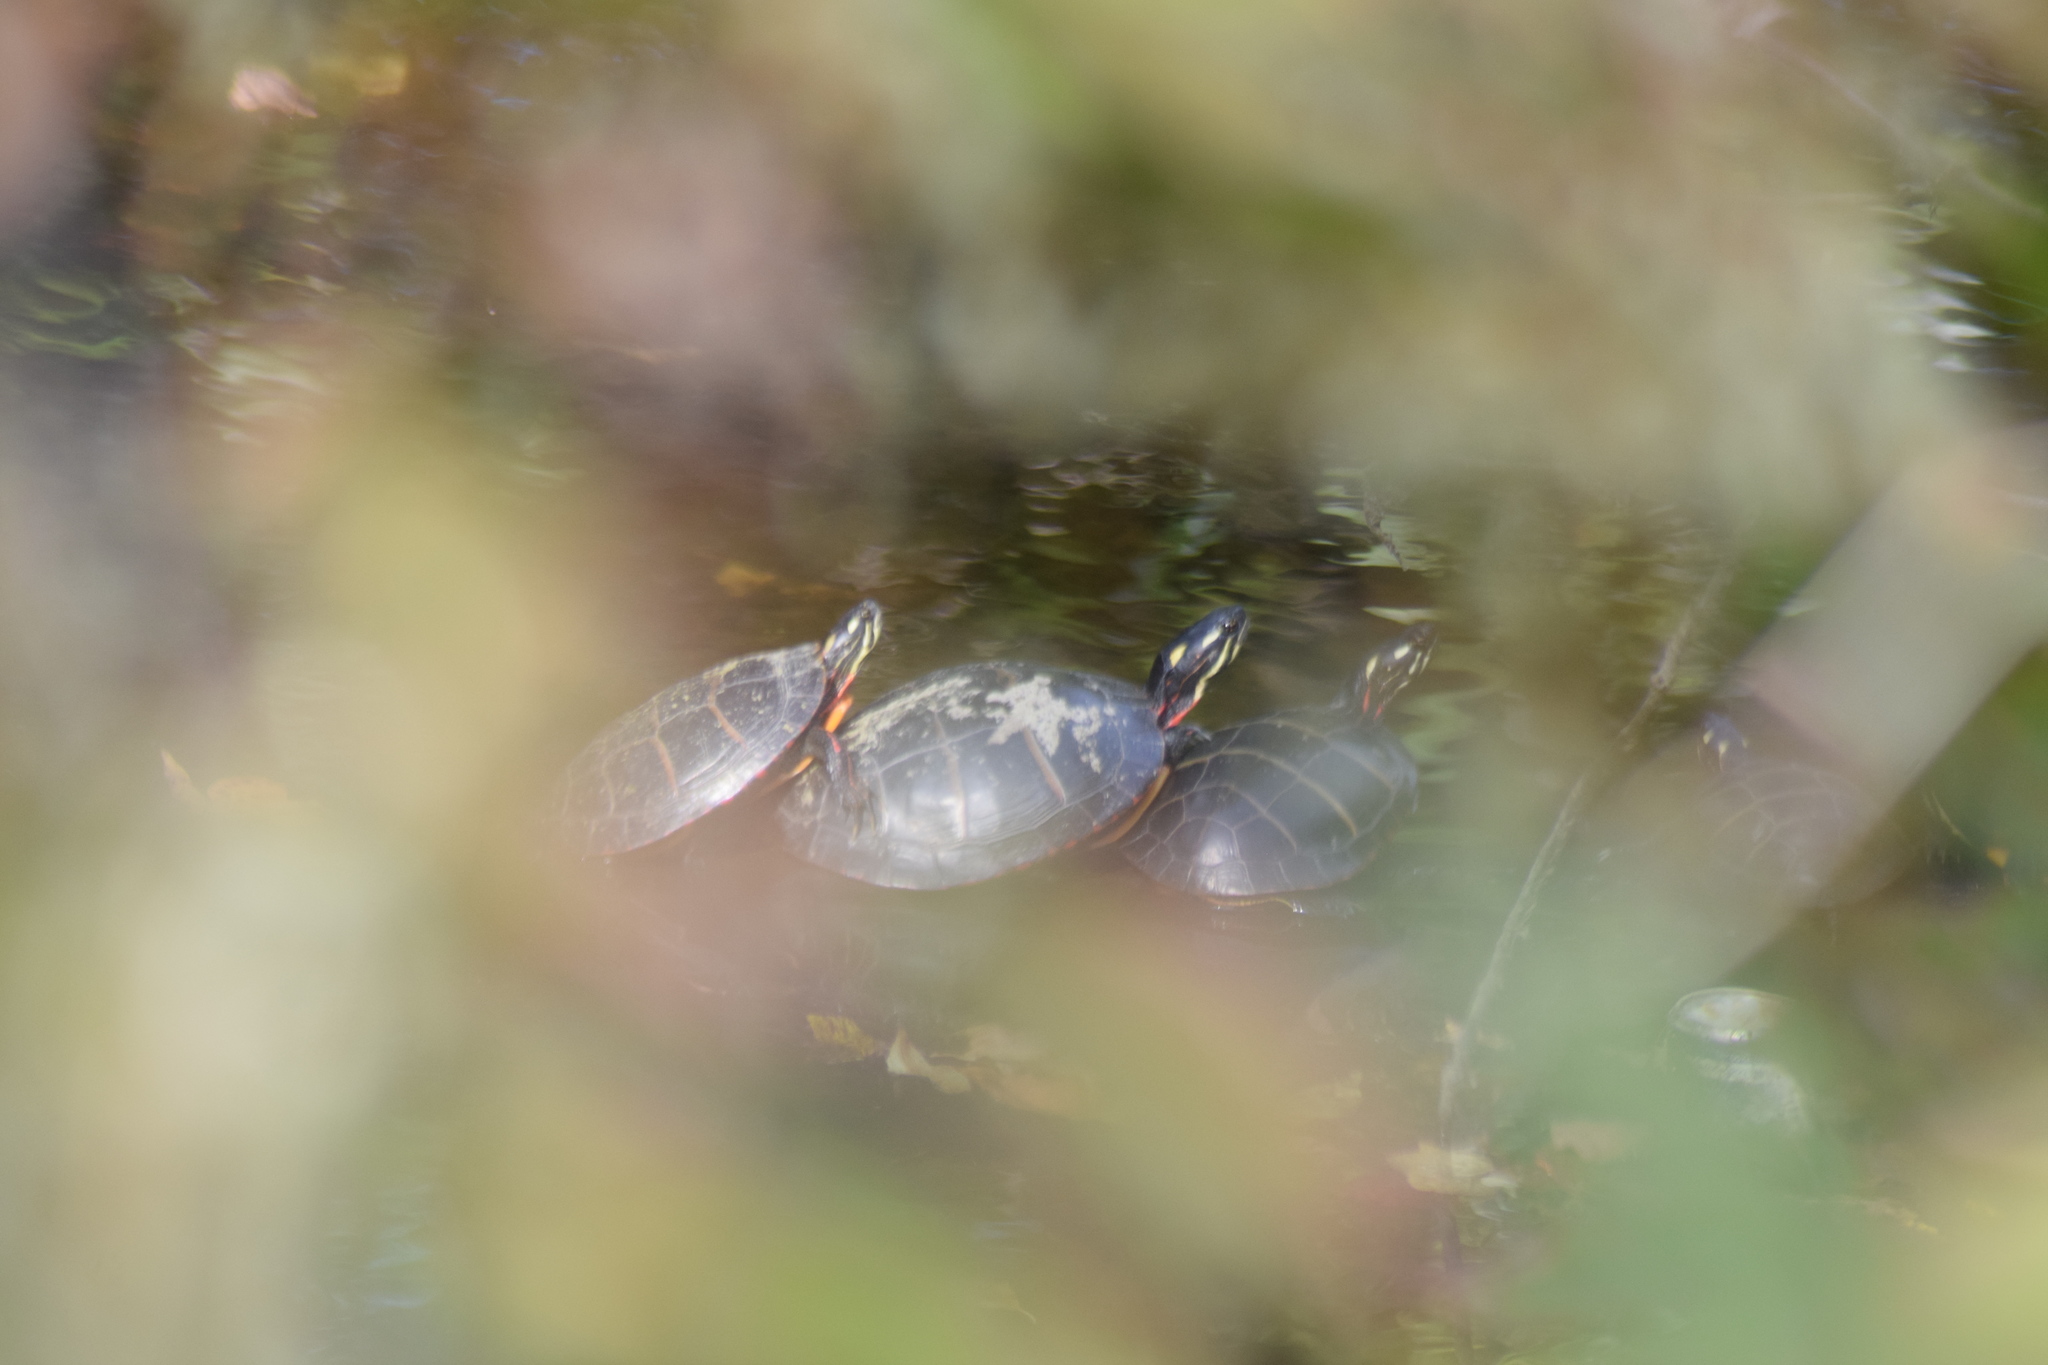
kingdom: Animalia
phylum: Chordata
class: Testudines
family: Emydidae
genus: Chrysemys
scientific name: Chrysemys picta
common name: Painted turtle
